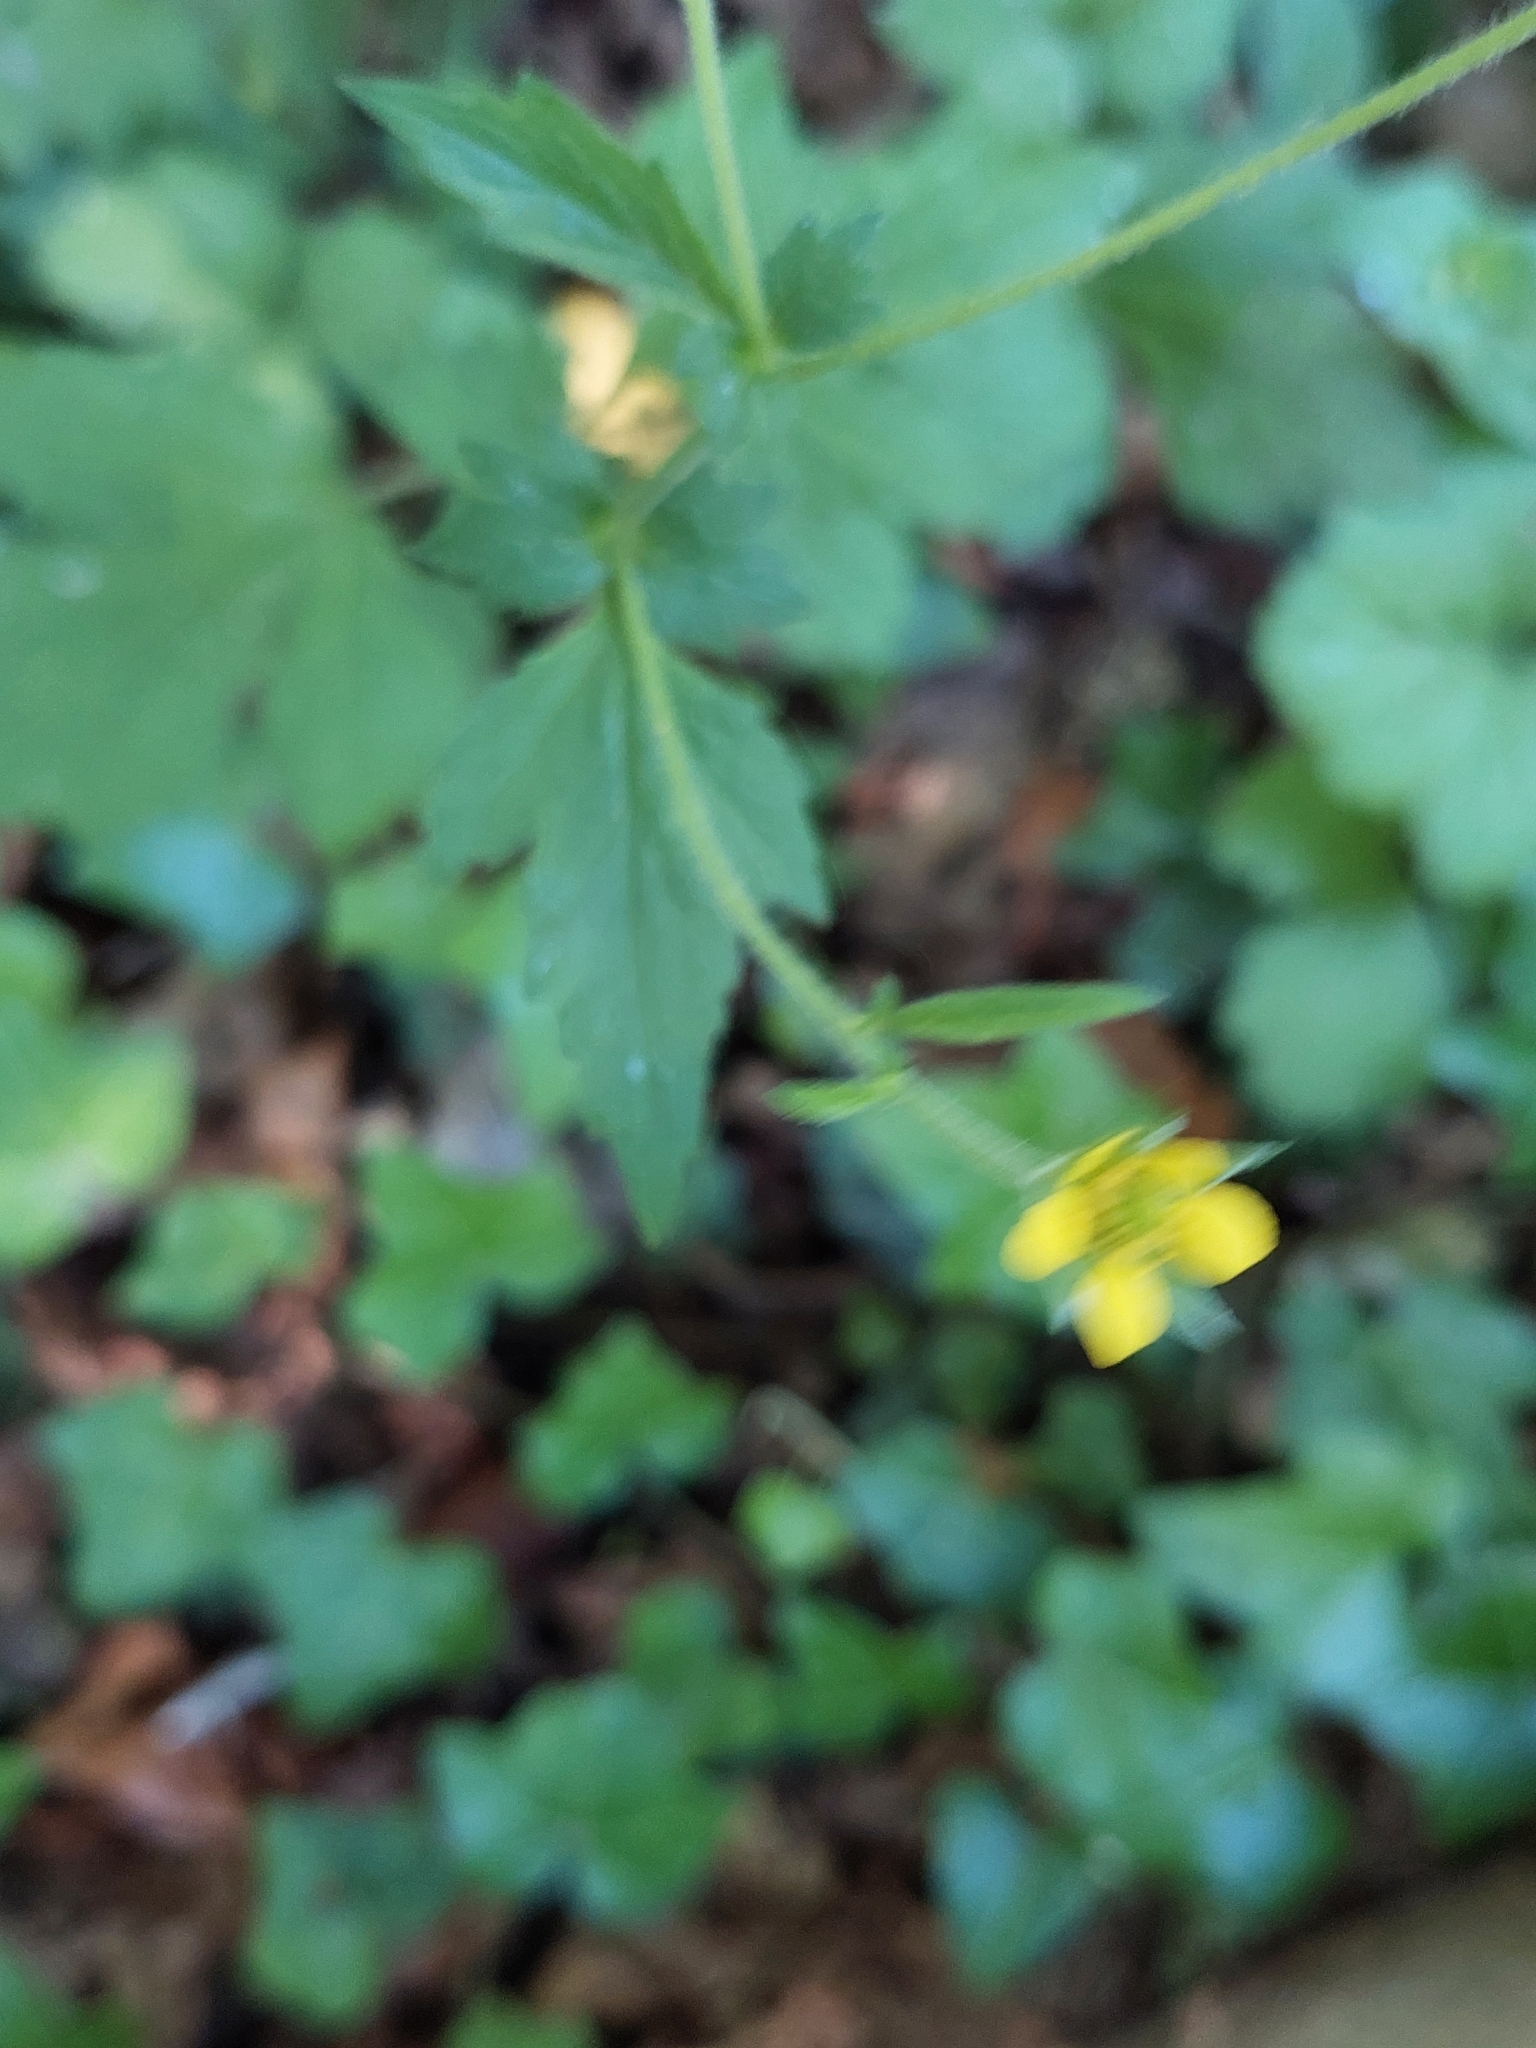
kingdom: Plantae
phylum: Tracheophyta
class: Magnoliopsida
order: Rosales
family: Rosaceae
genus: Geum
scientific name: Geum urbanum
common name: Wood avens
